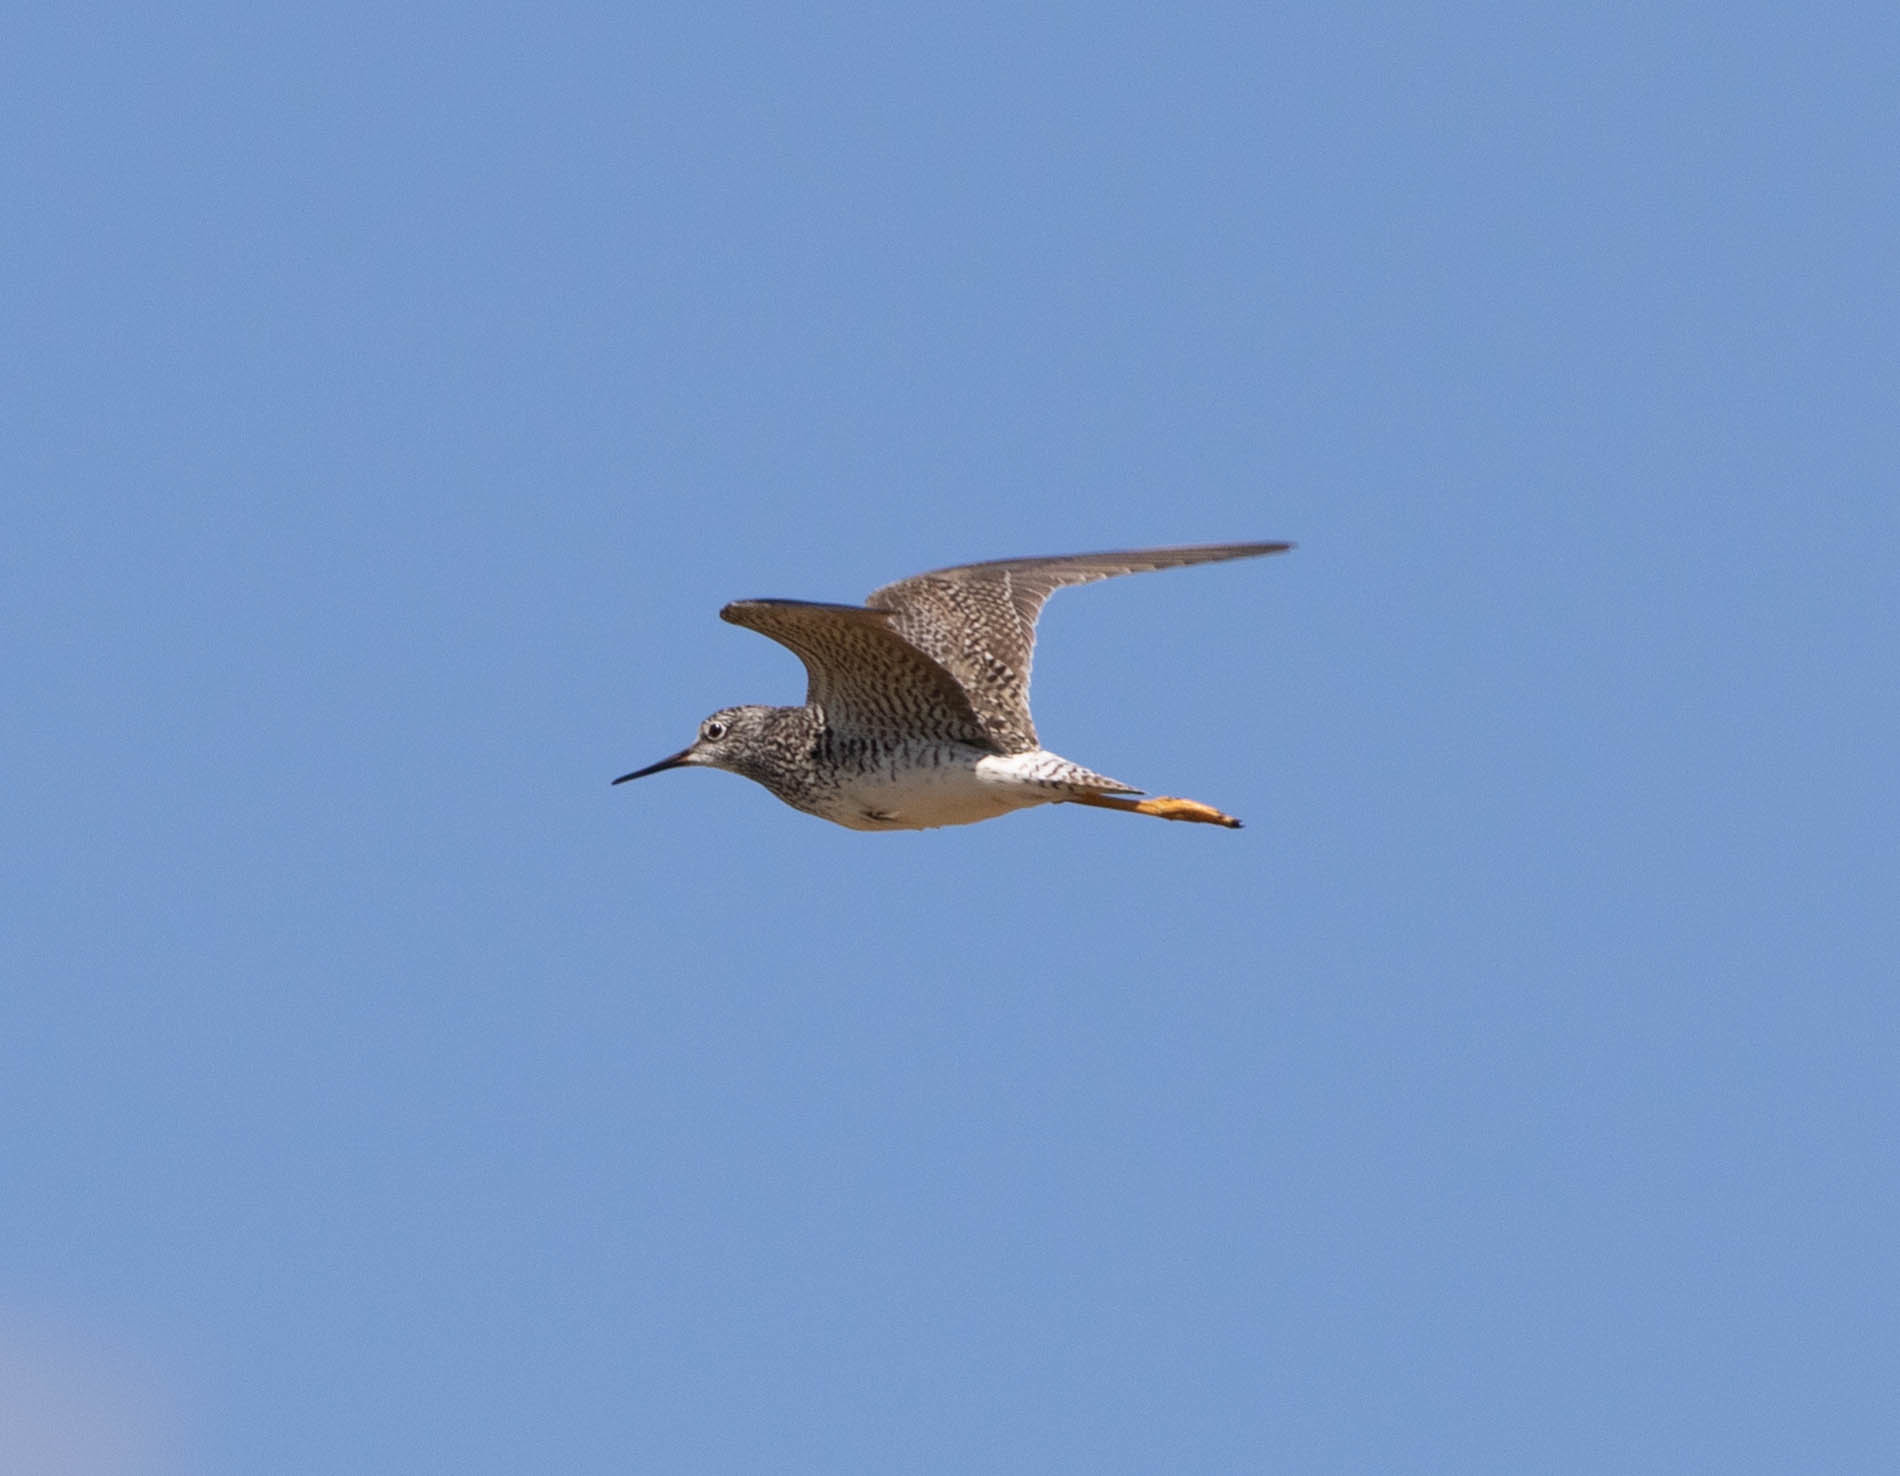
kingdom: Animalia
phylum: Chordata
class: Aves
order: Charadriiformes
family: Scolopacidae
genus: Tringa
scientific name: Tringa flavipes
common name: Lesser yellowlegs
